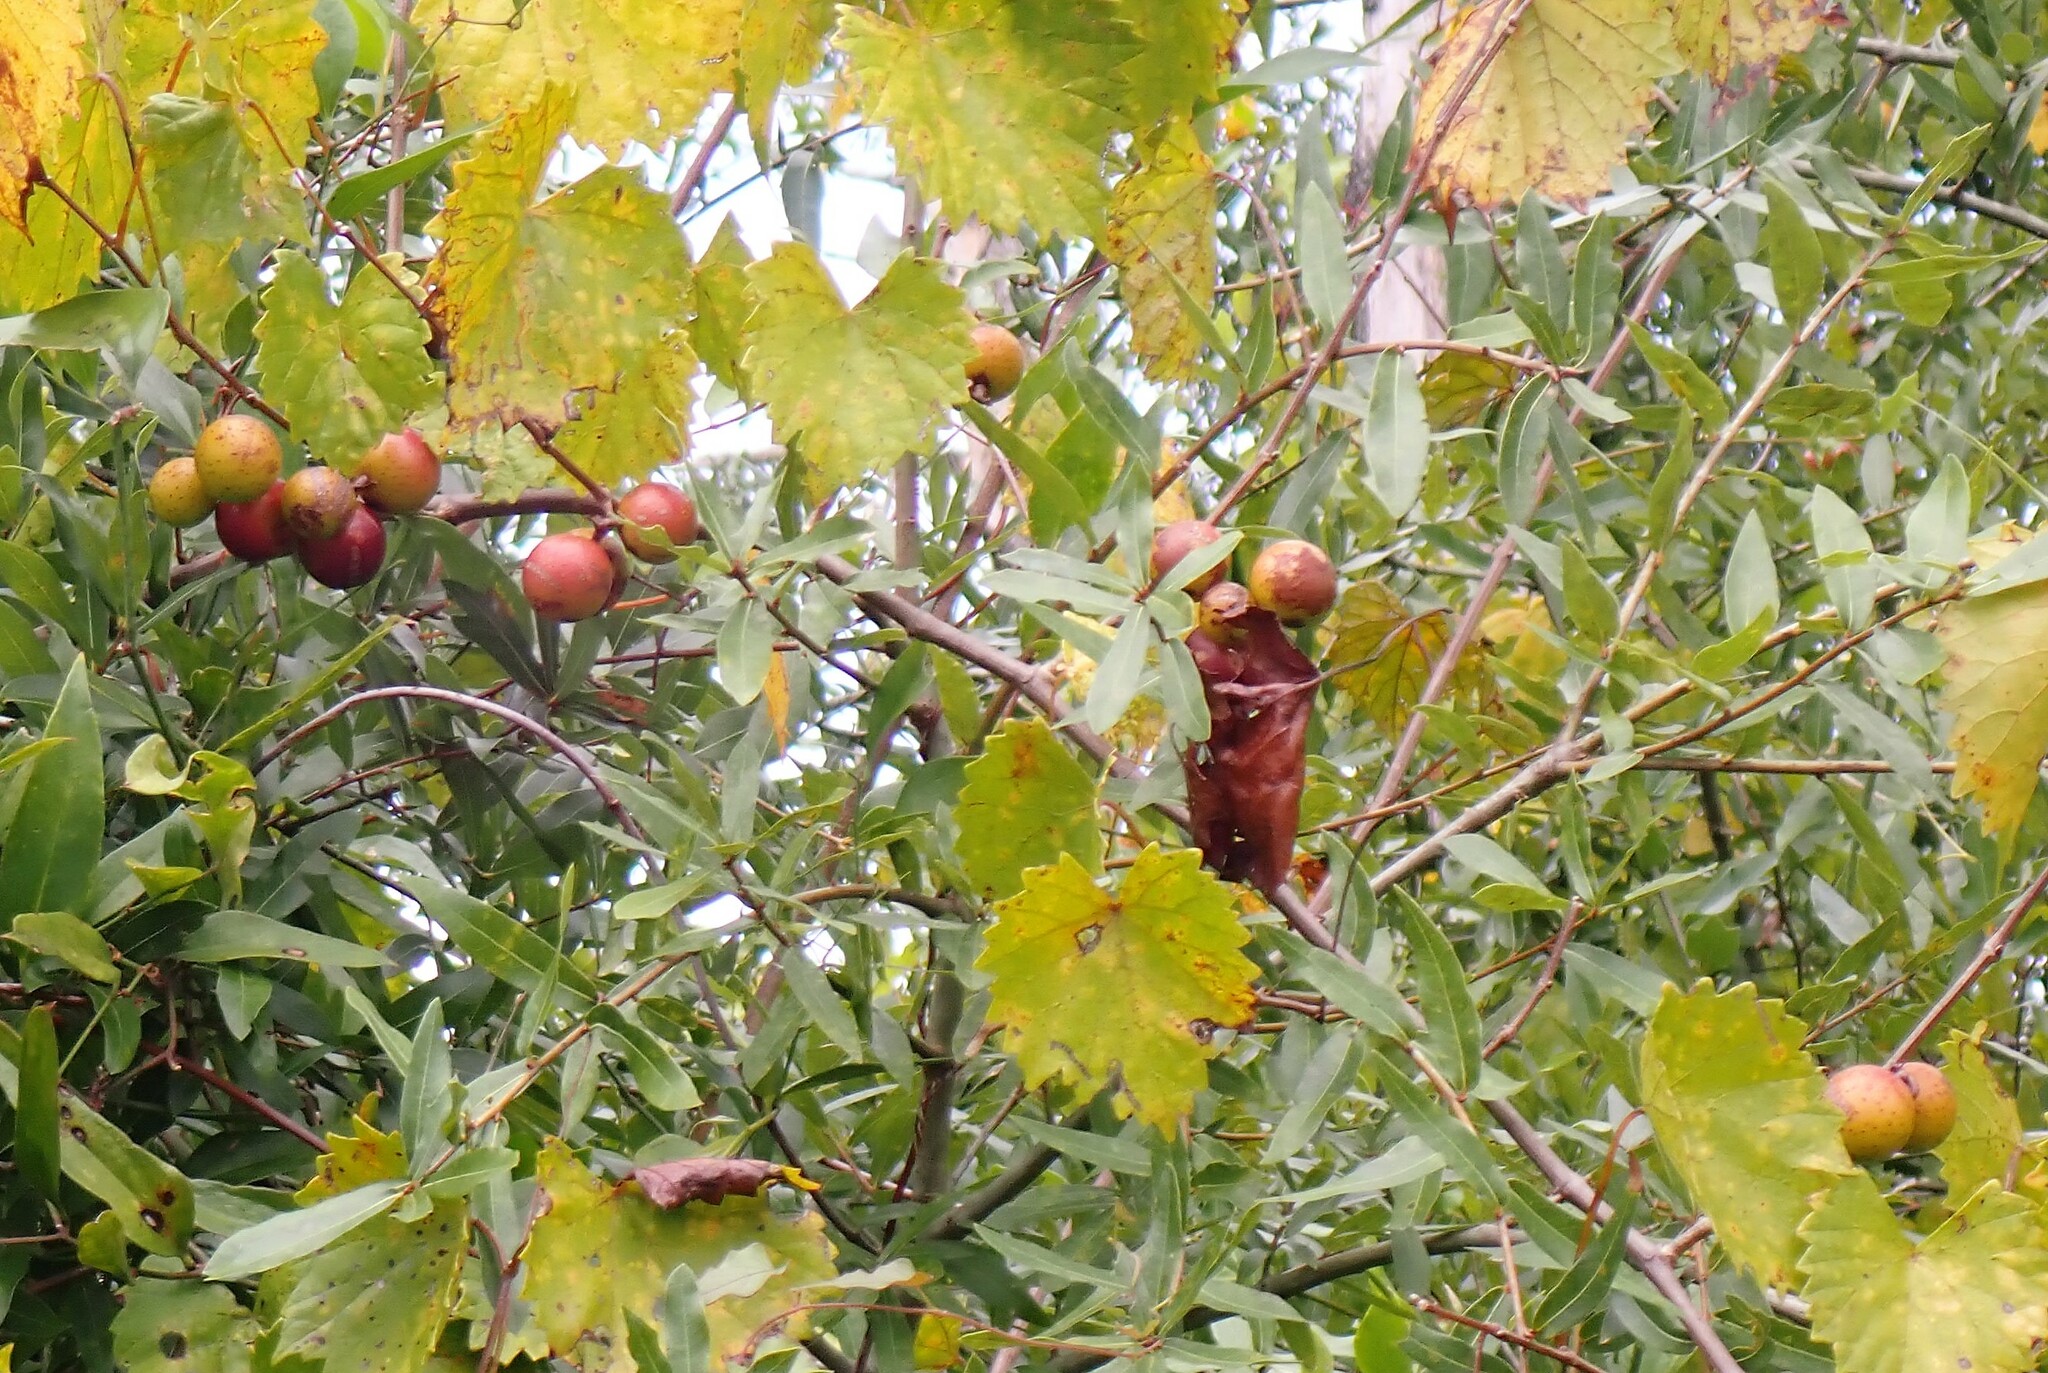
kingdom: Plantae
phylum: Tracheophyta
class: Magnoliopsida
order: Vitales
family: Vitaceae
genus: Vitis
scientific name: Vitis rotundifolia
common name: Muscadine grape
